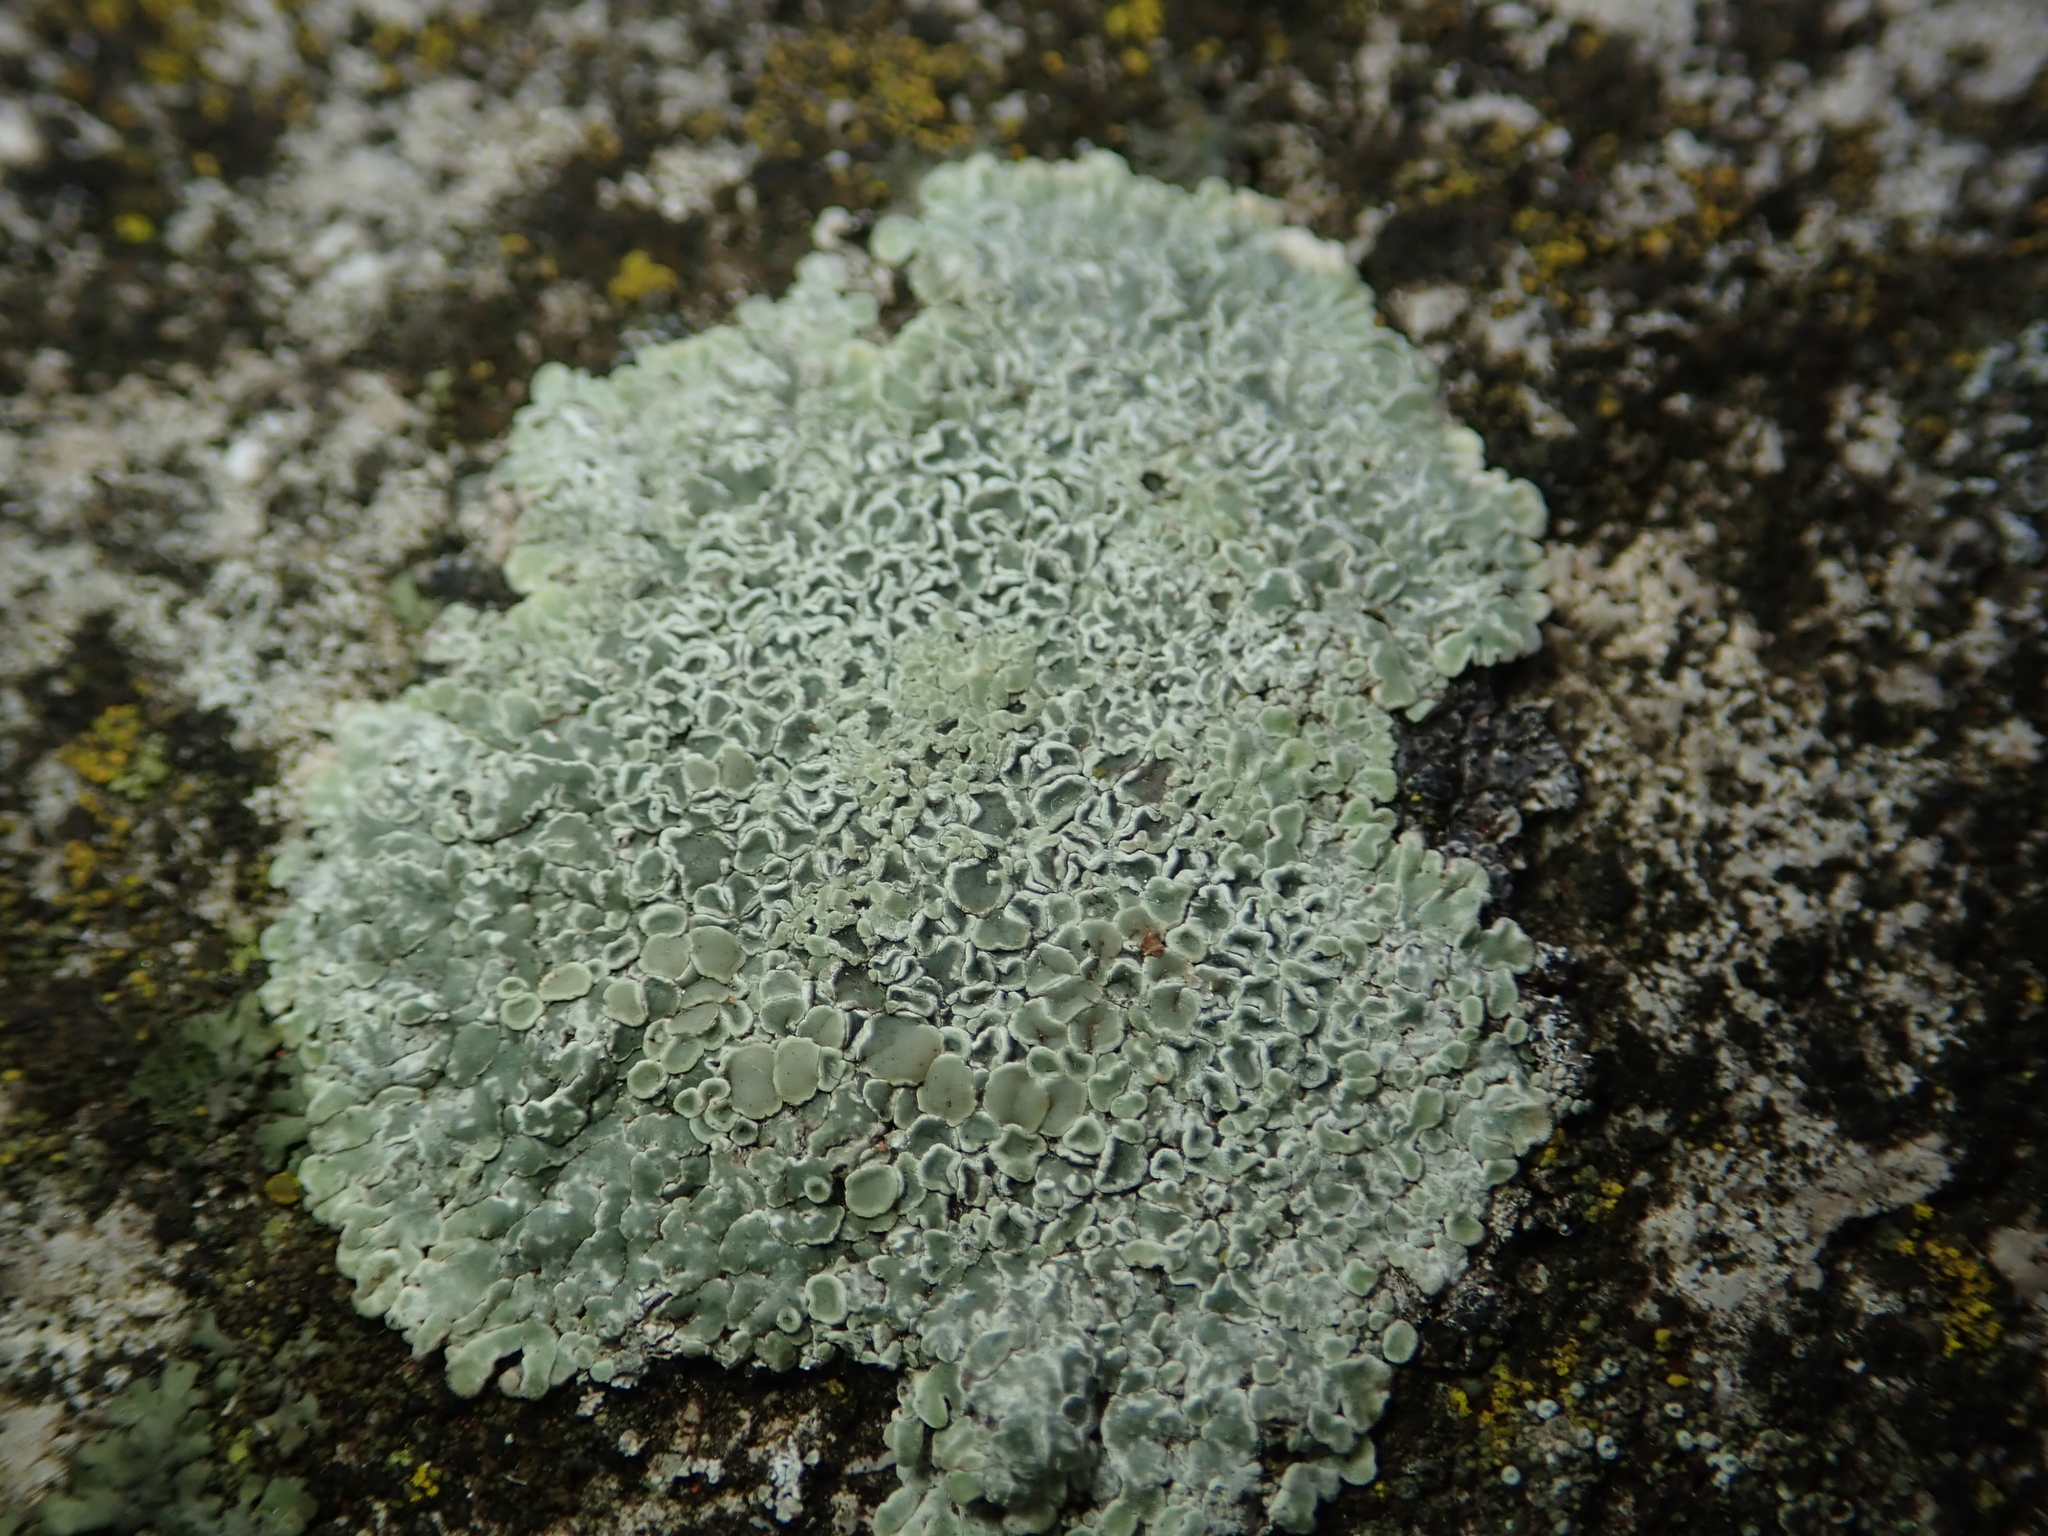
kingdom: Fungi
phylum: Ascomycota
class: Lecanoromycetes
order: Lecanorales
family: Lecanoraceae
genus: Protoparmeliopsis
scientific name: Protoparmeliopsis muralis
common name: Stonewall rim lichen
